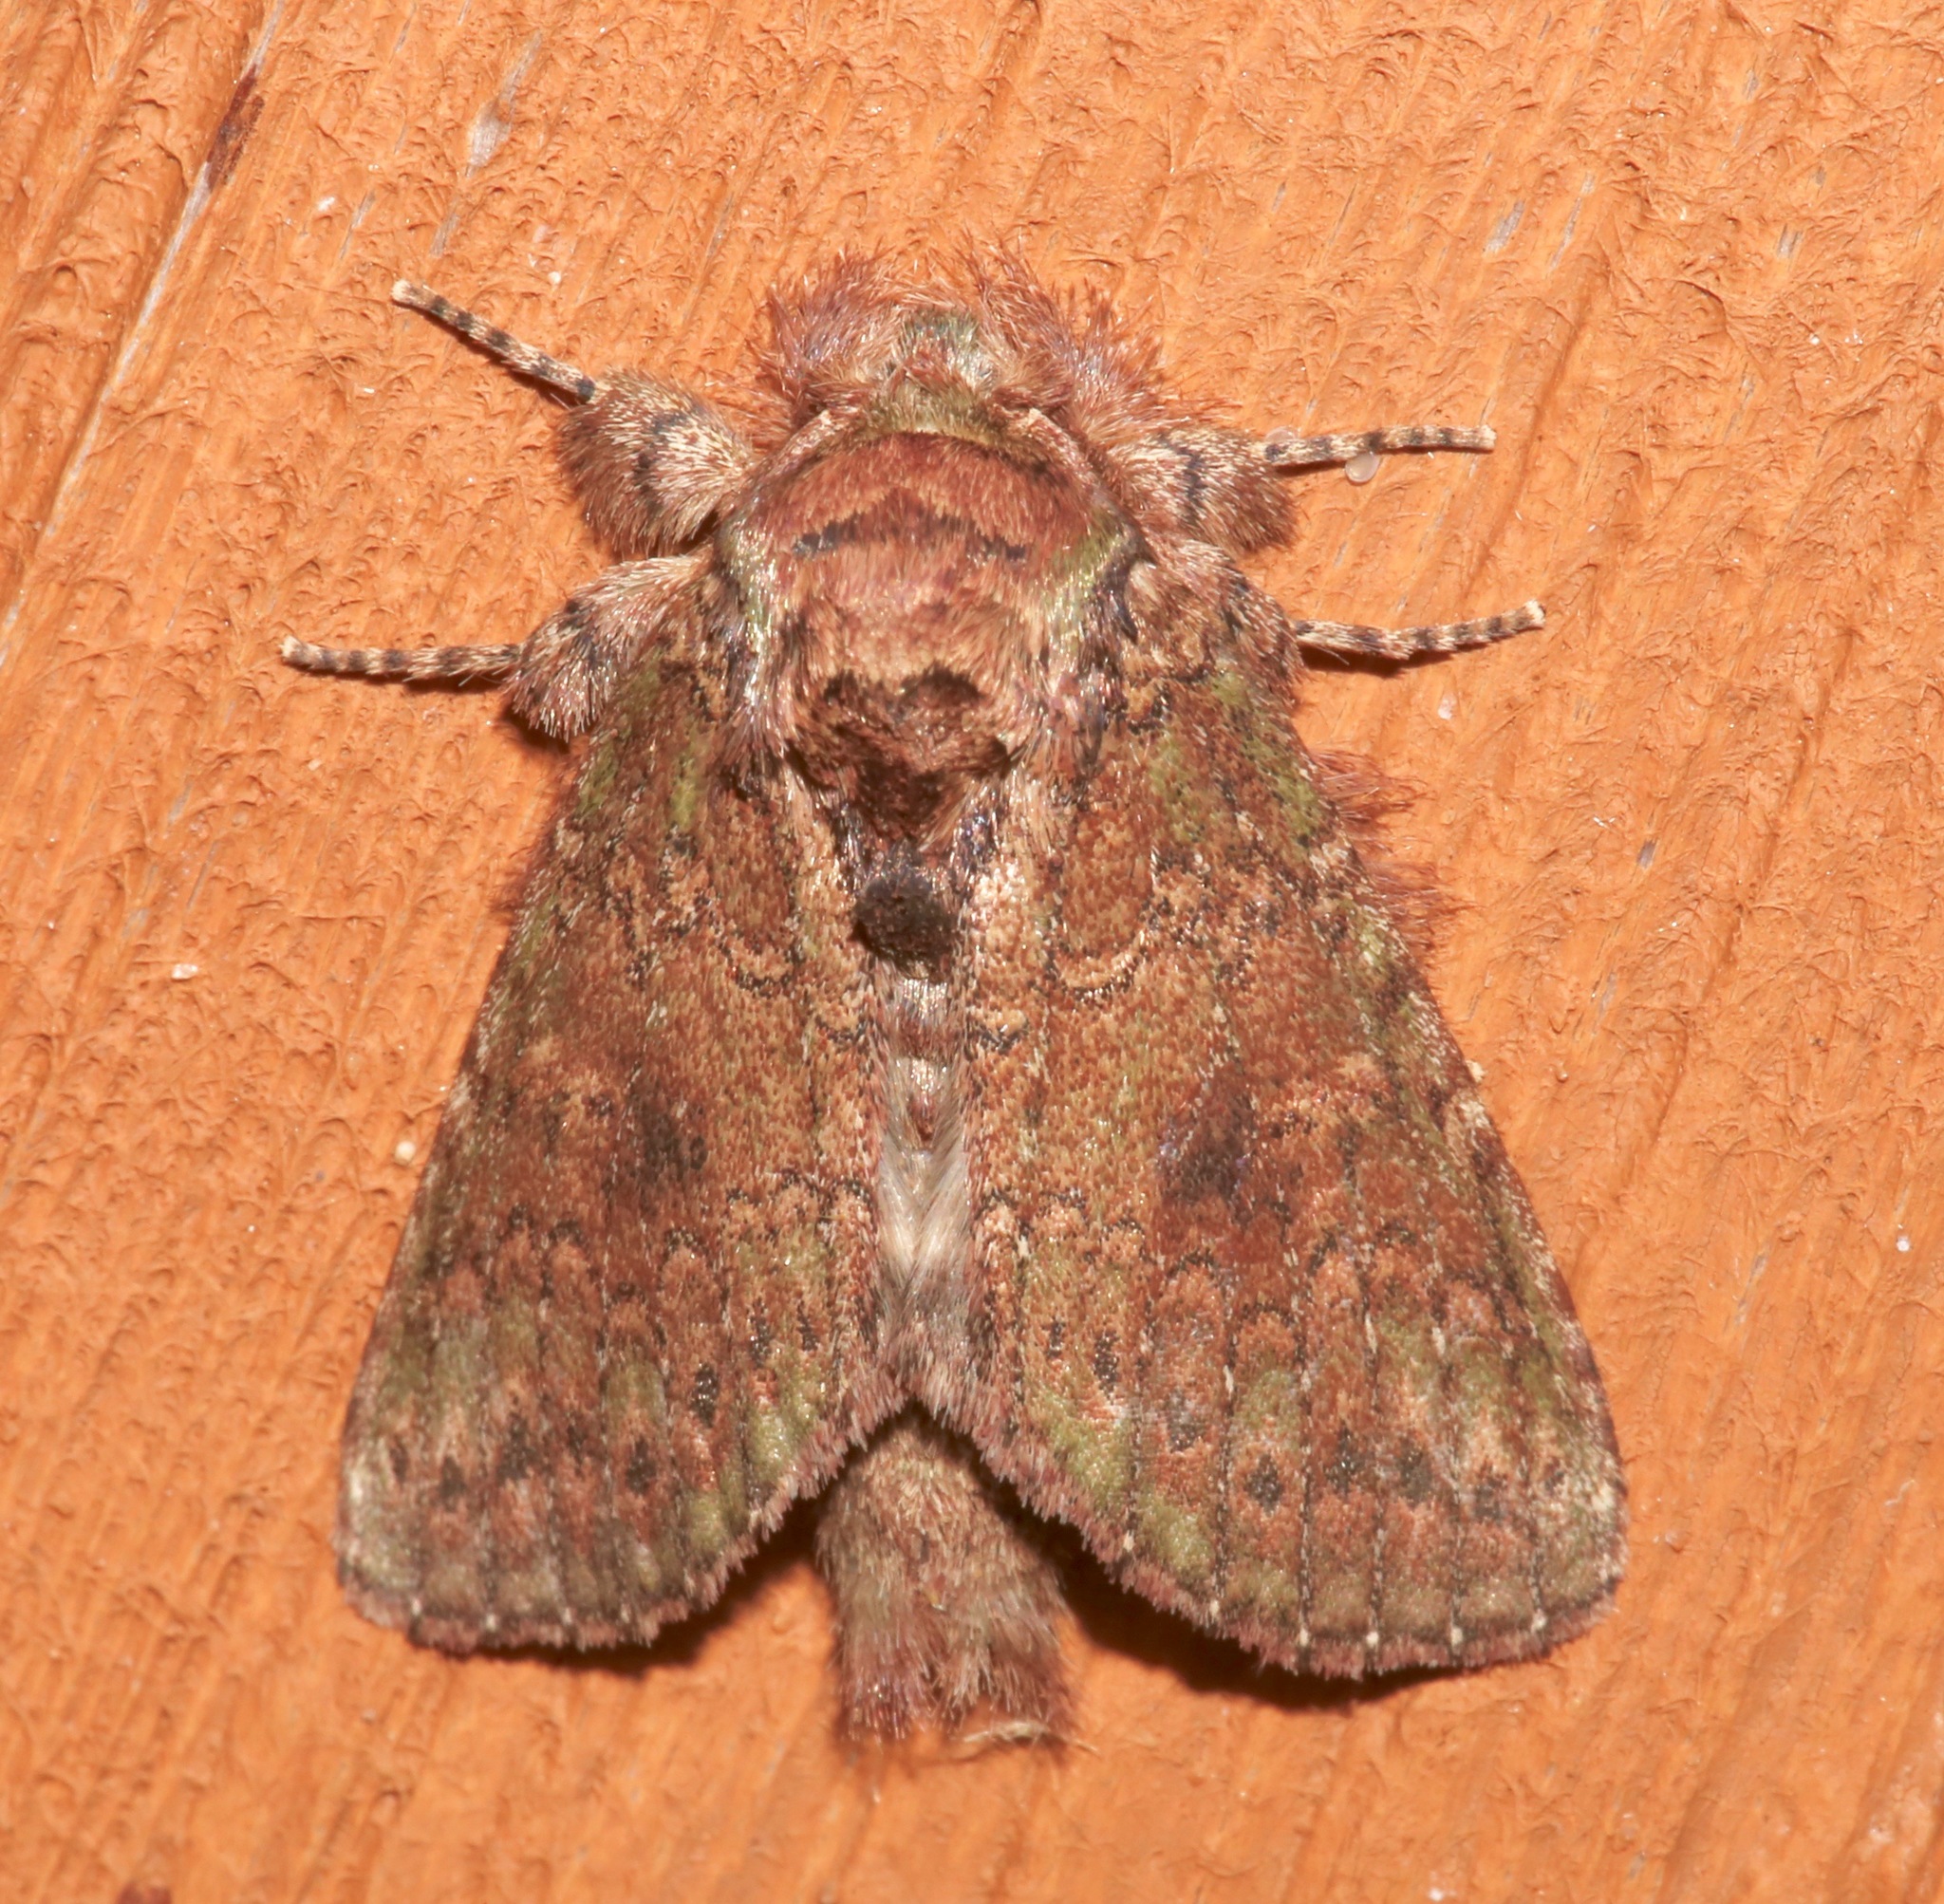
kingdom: Animalia
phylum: Arthropoda
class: Insecta
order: Lepidoptera
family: Notodontidae
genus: Disphragis
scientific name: Disphragis Cecrita biundata
